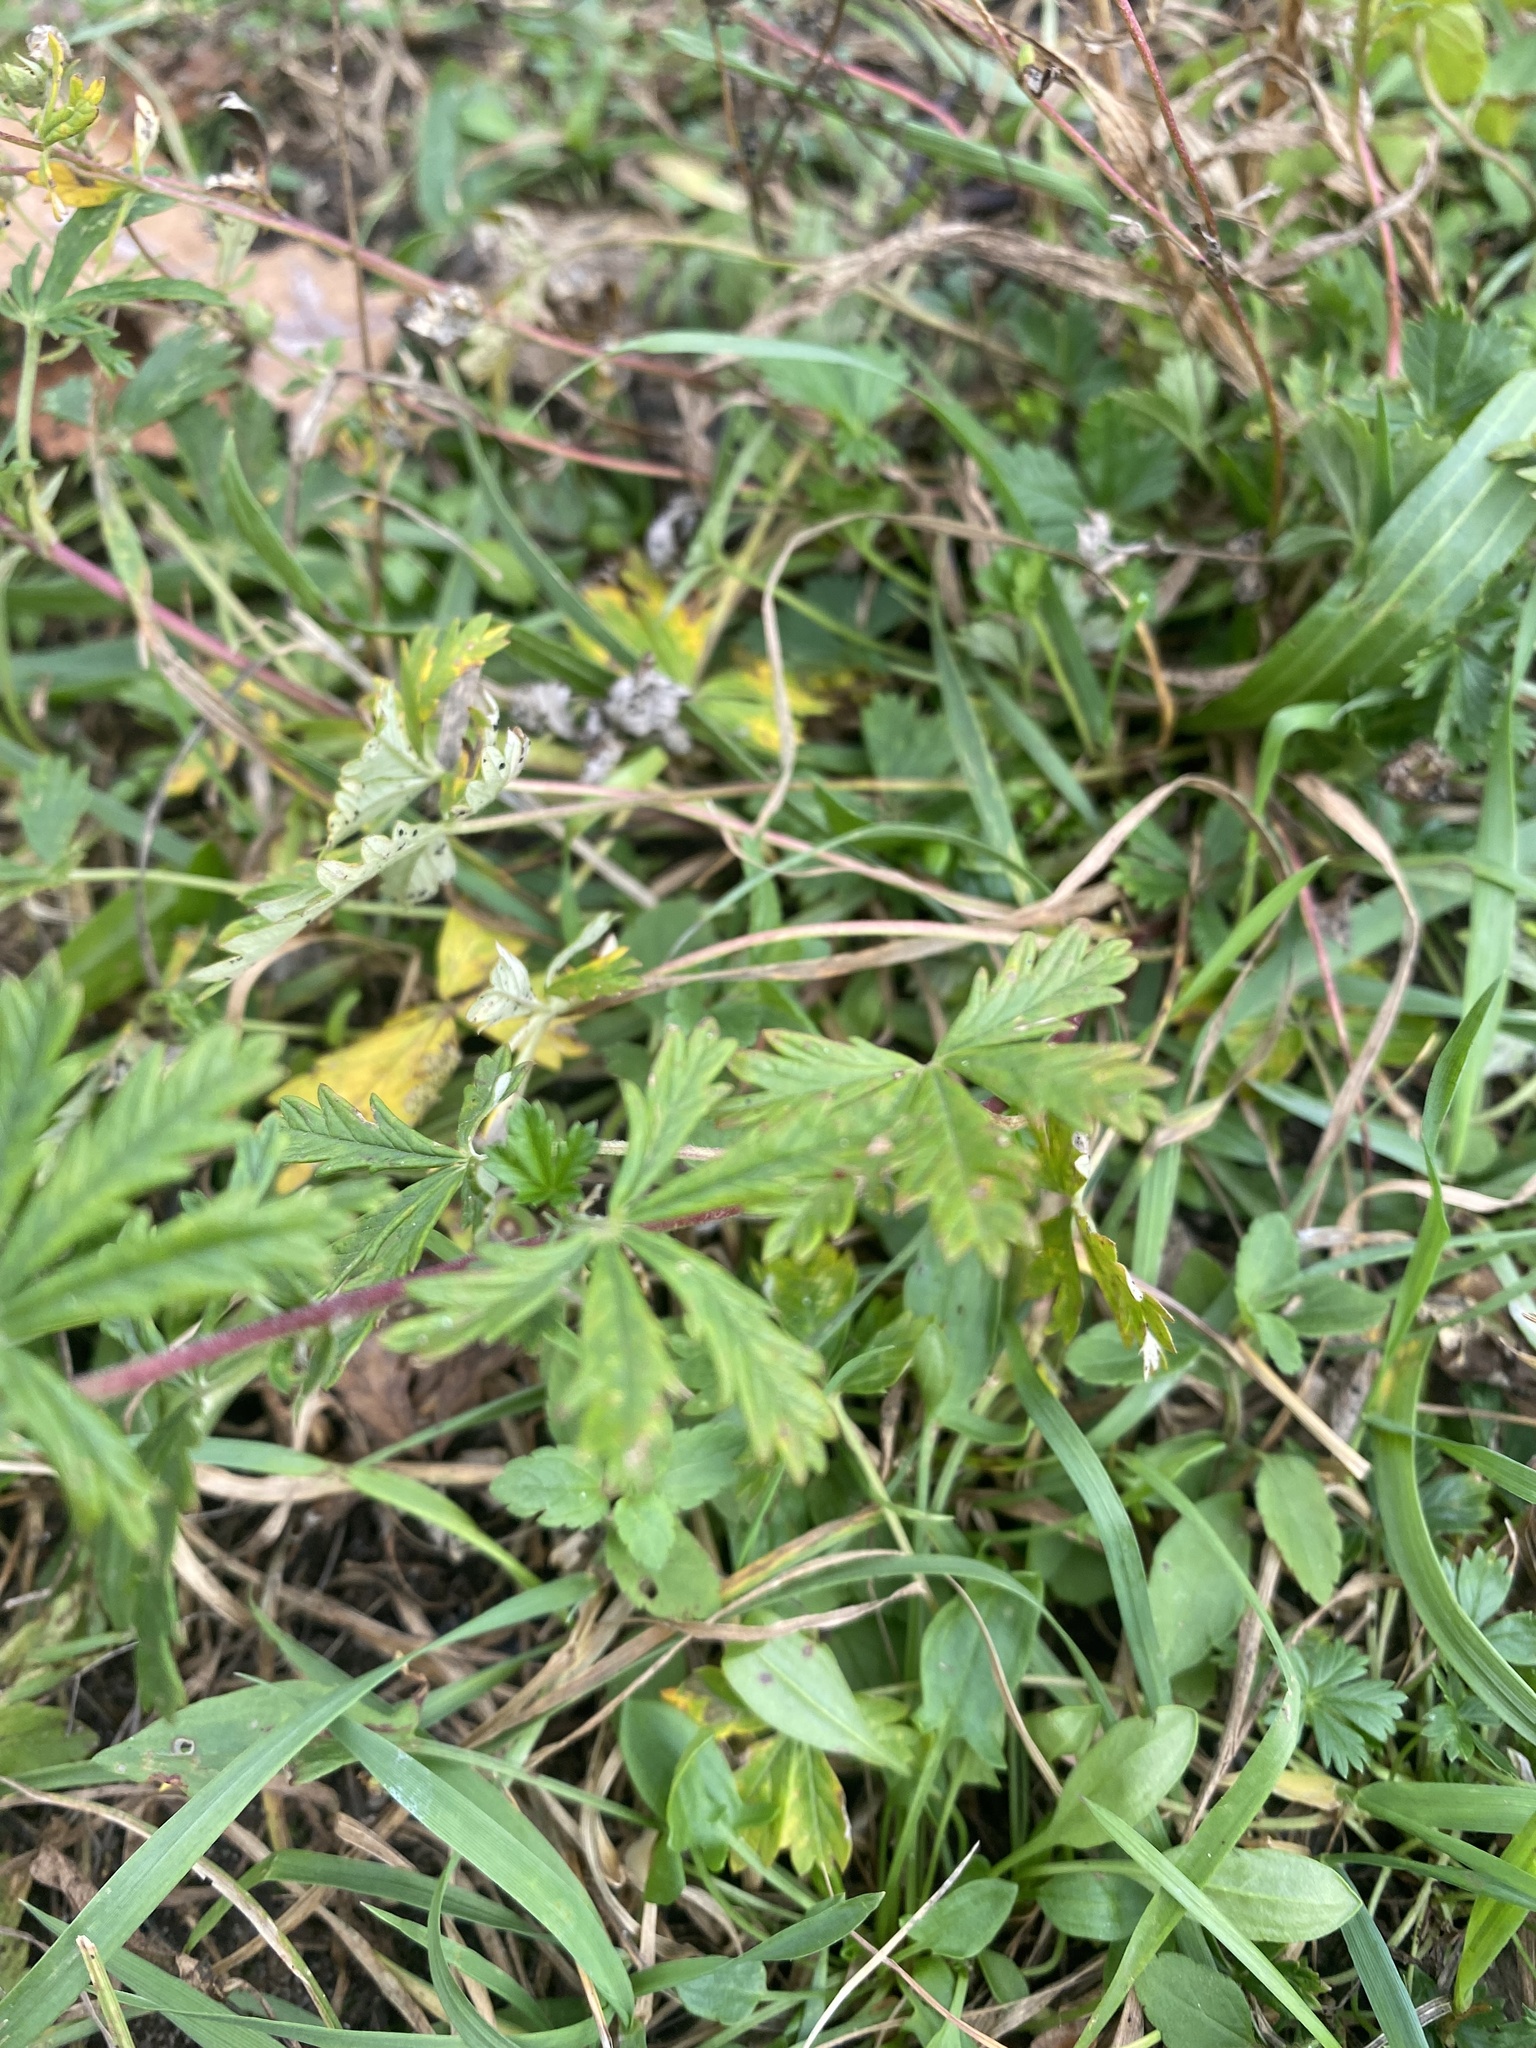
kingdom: Plantae
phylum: Tracheophyta
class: Magnoliopsida
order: Rosales
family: Rosaceae
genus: Potentilla
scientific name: Potentilla argentea
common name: Hoary cinquefoil
